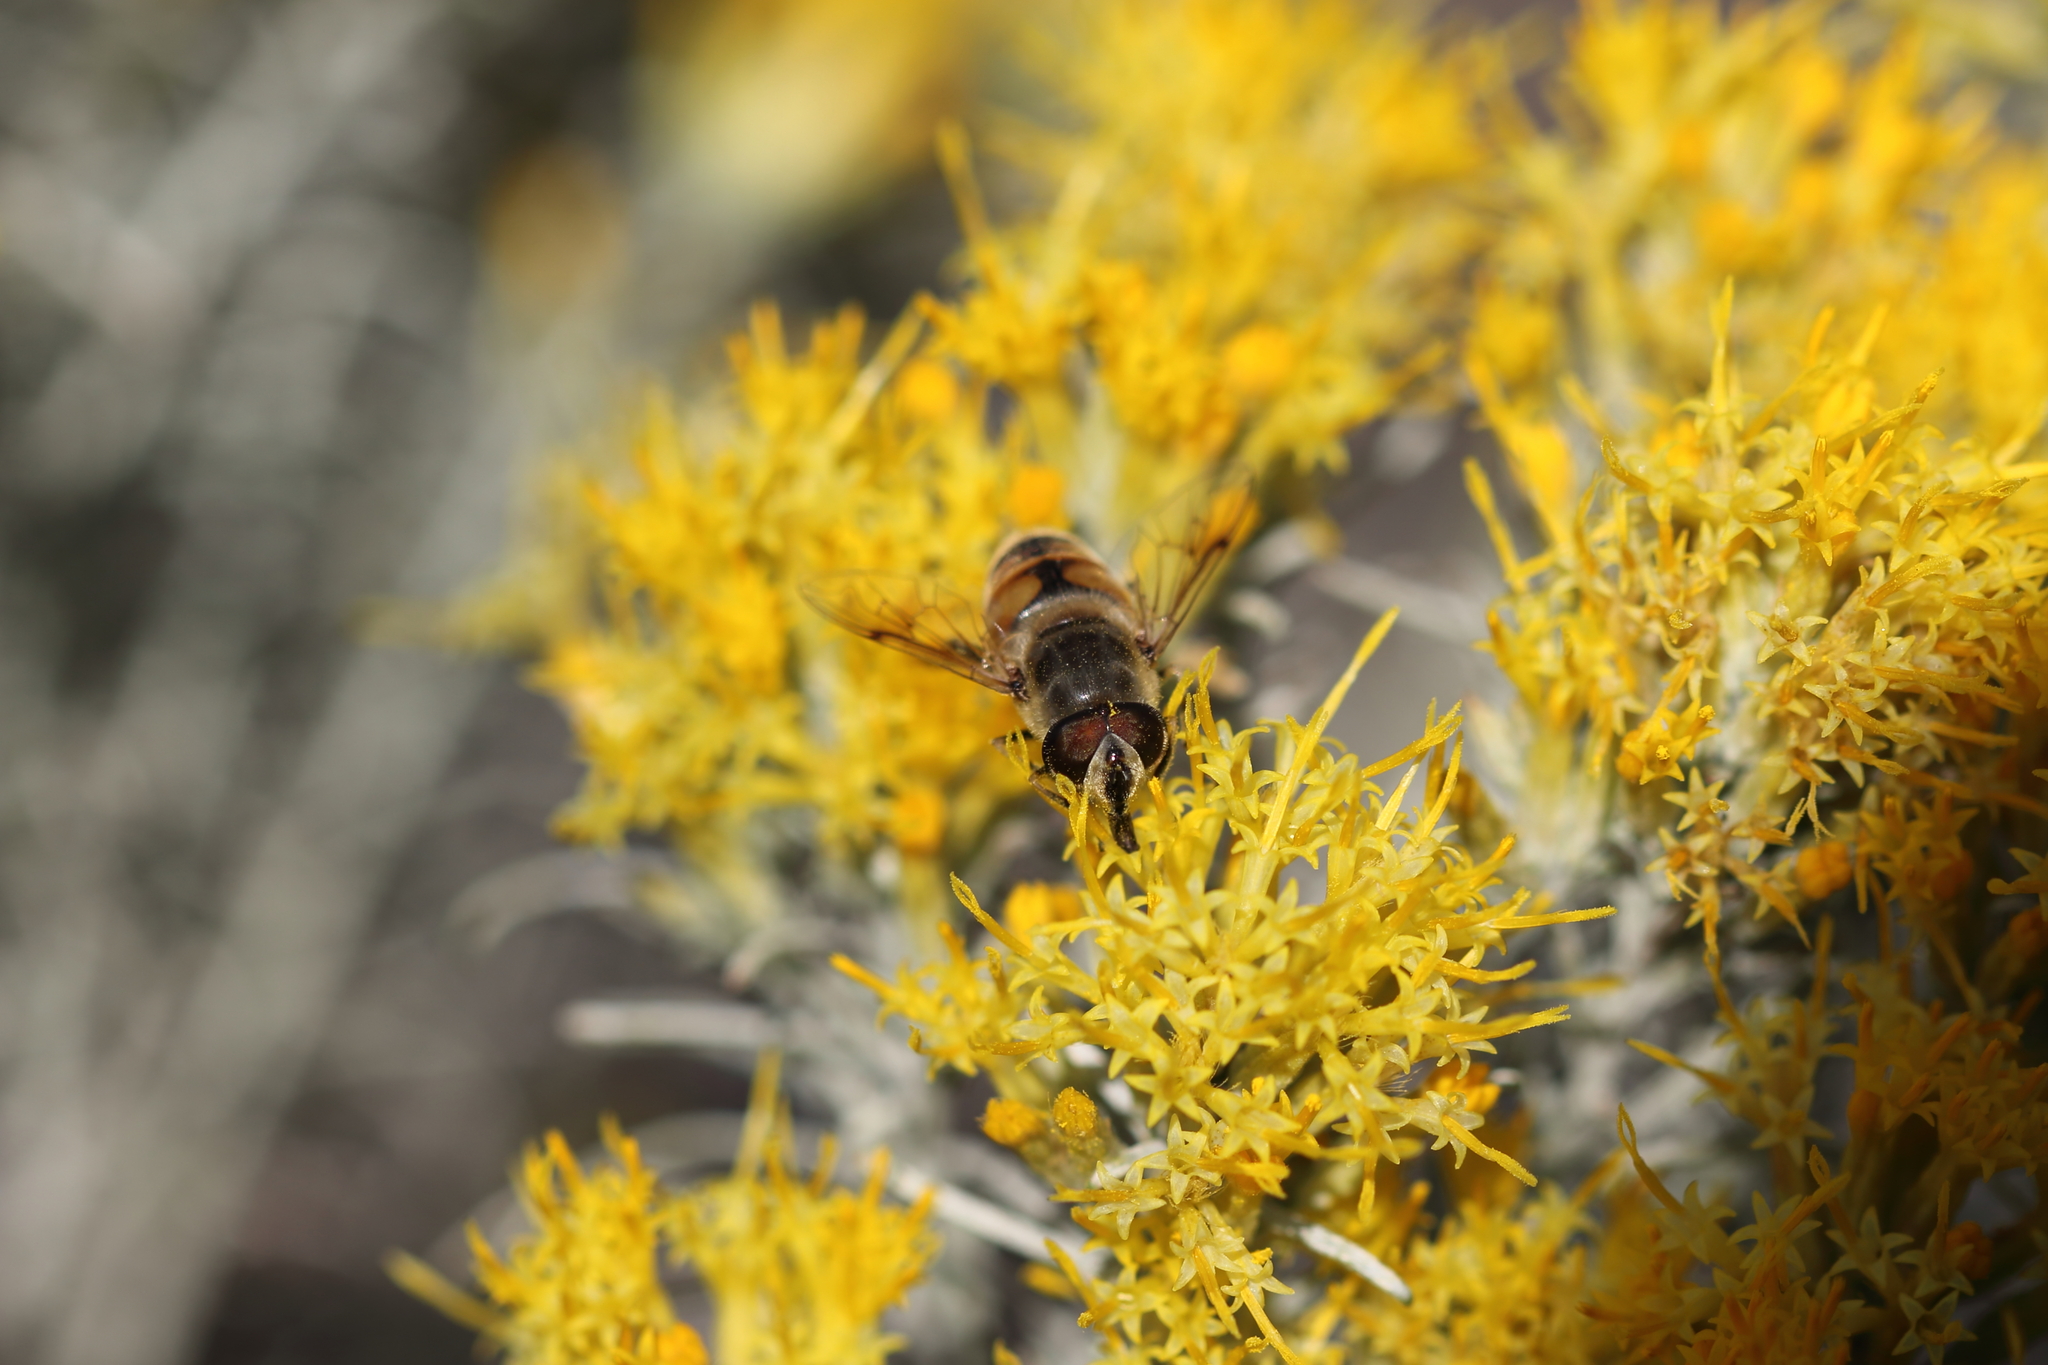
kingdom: Animalia
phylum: Arthropoda
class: Insecta
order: Diptera
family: Syrphidae
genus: Eristalis
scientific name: Eristalis tenax
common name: Drone fly
